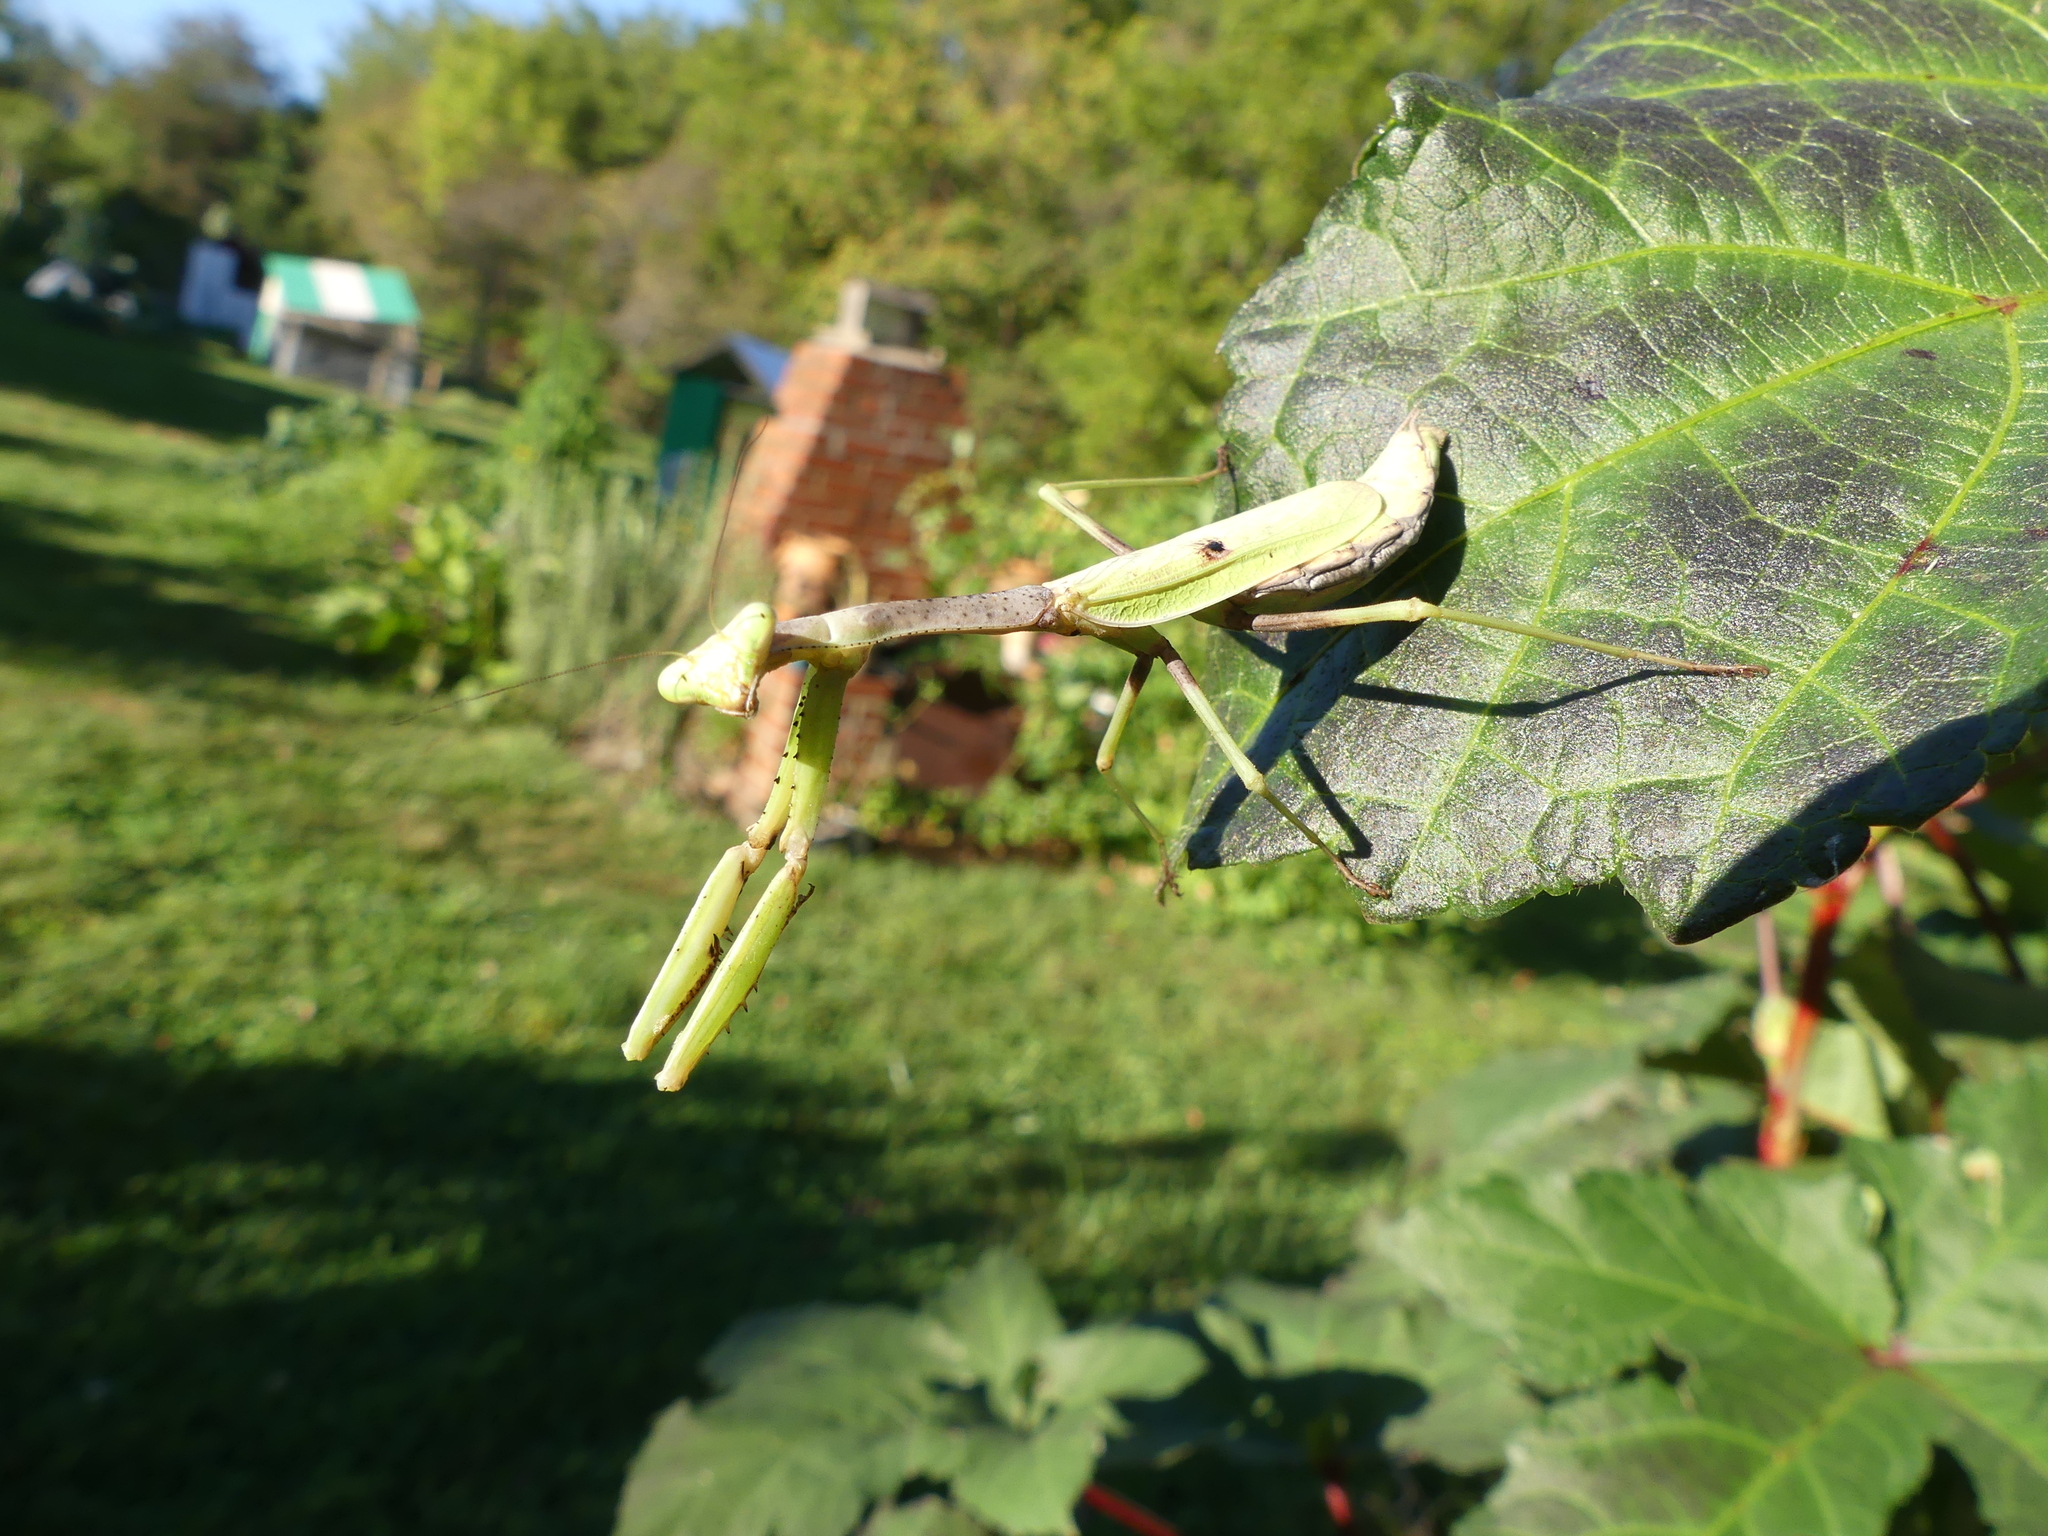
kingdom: Animalia
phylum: Arthropoda
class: Insecta
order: Mantodea
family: Mantidae
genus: Stagmomantis
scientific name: Stagmomantis carolina
